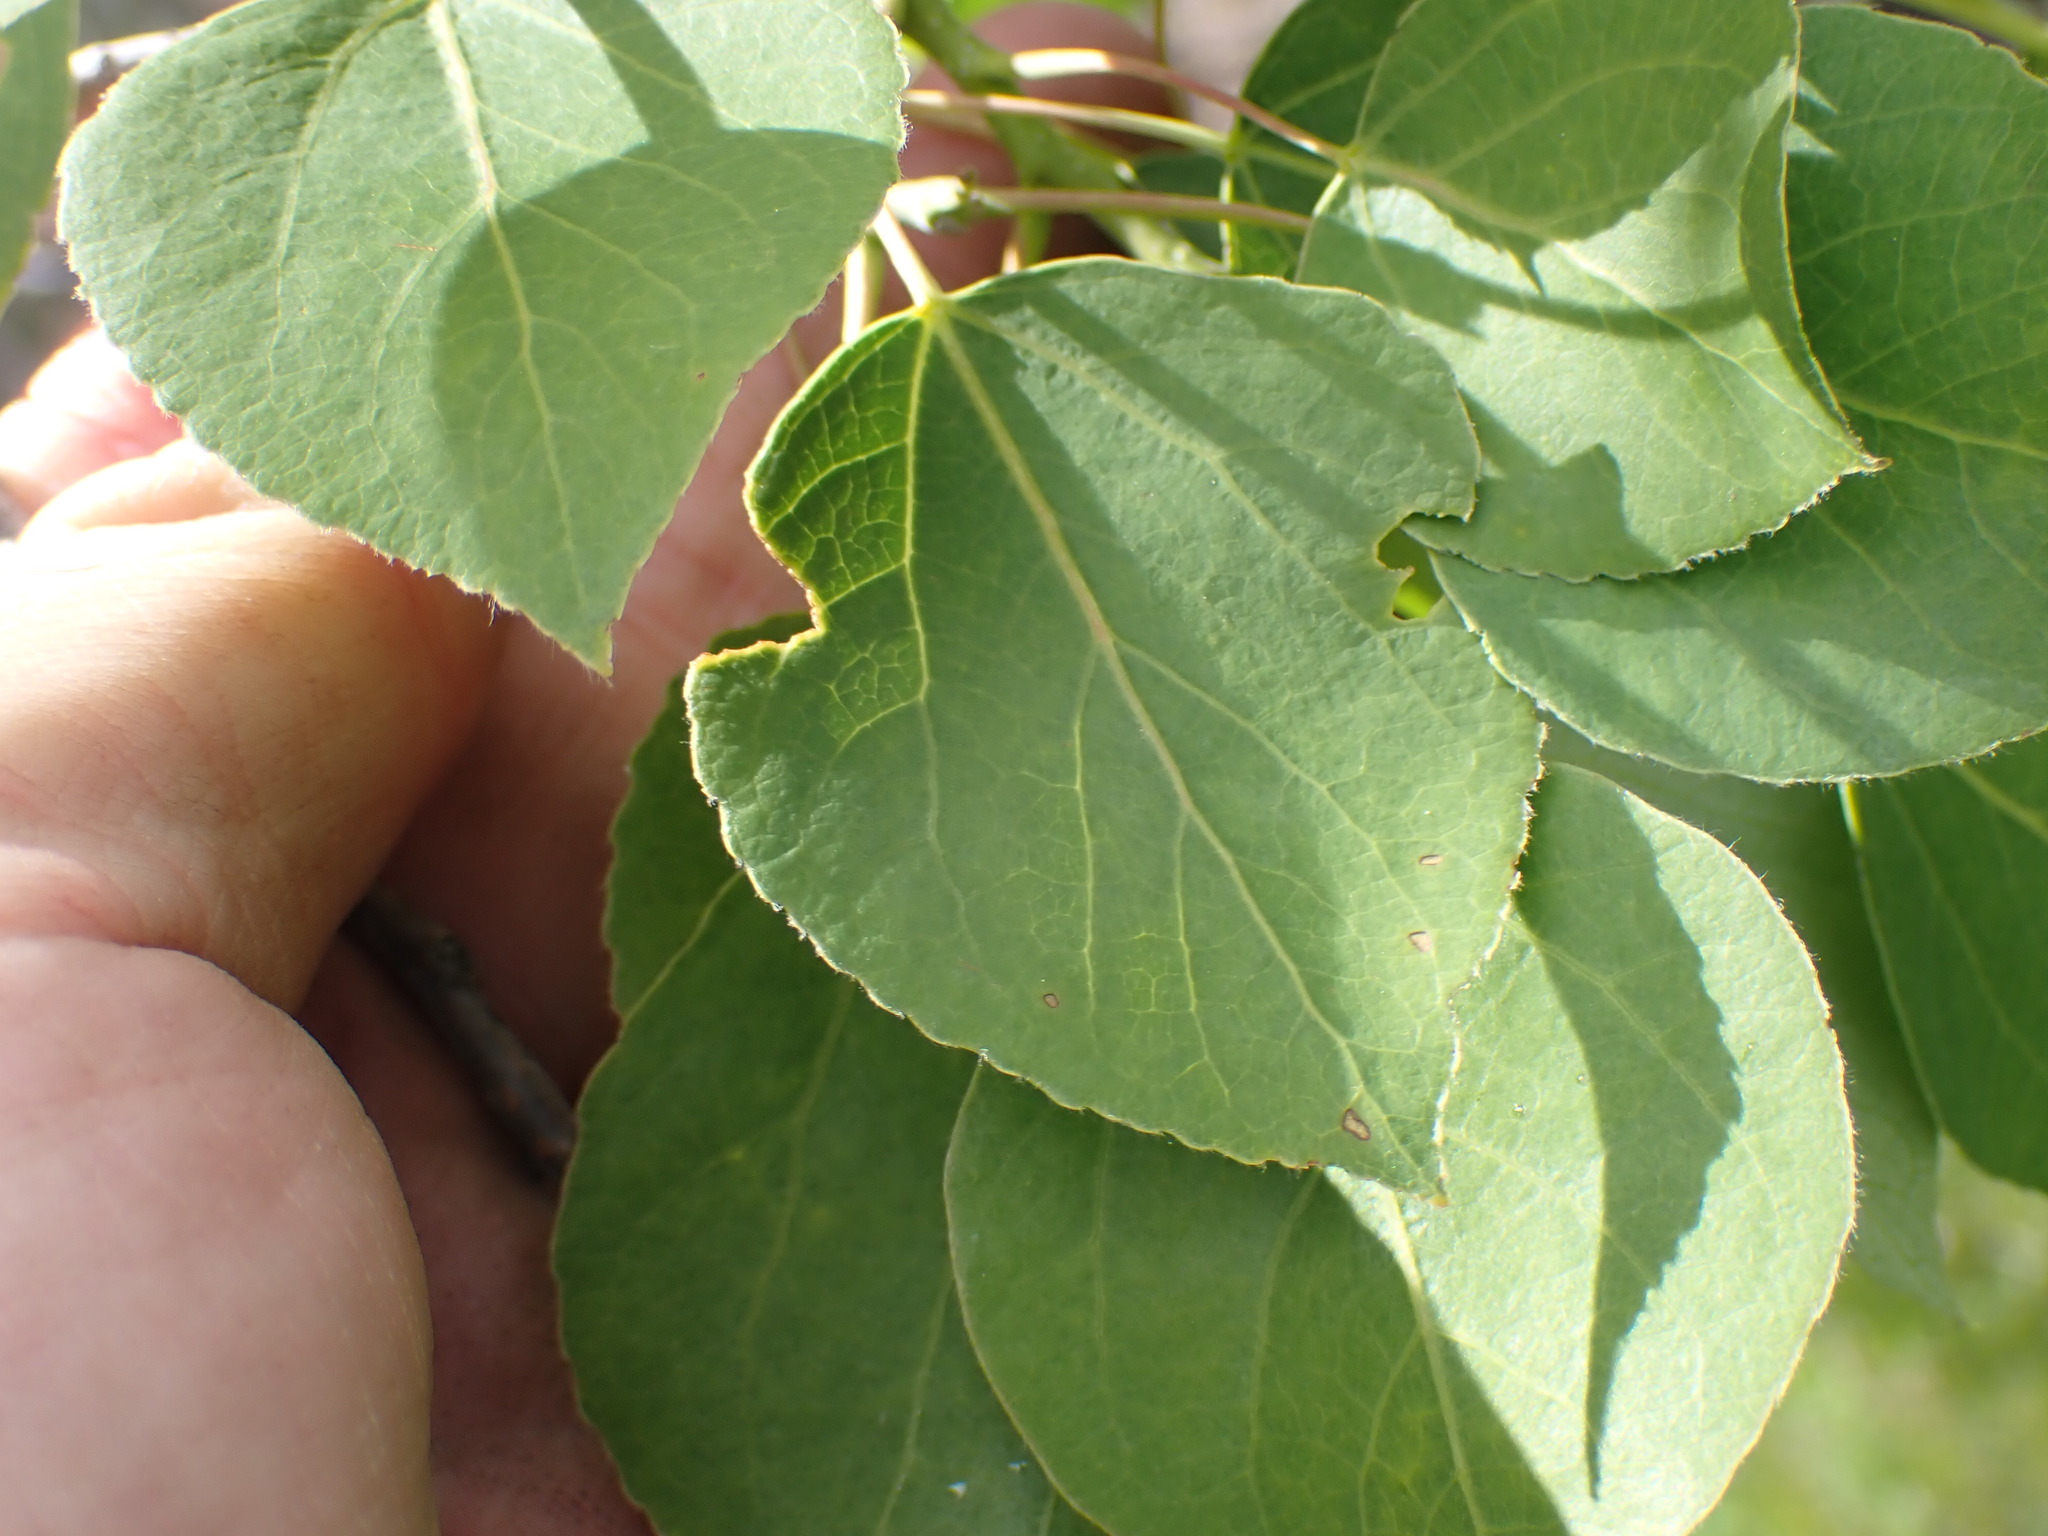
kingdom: Plantae
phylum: Tracheophyta
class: Magnoliopsida
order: Malpighiales
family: Salicaceae
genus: Populus
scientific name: Populus tremuloides
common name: Quaking aspen
